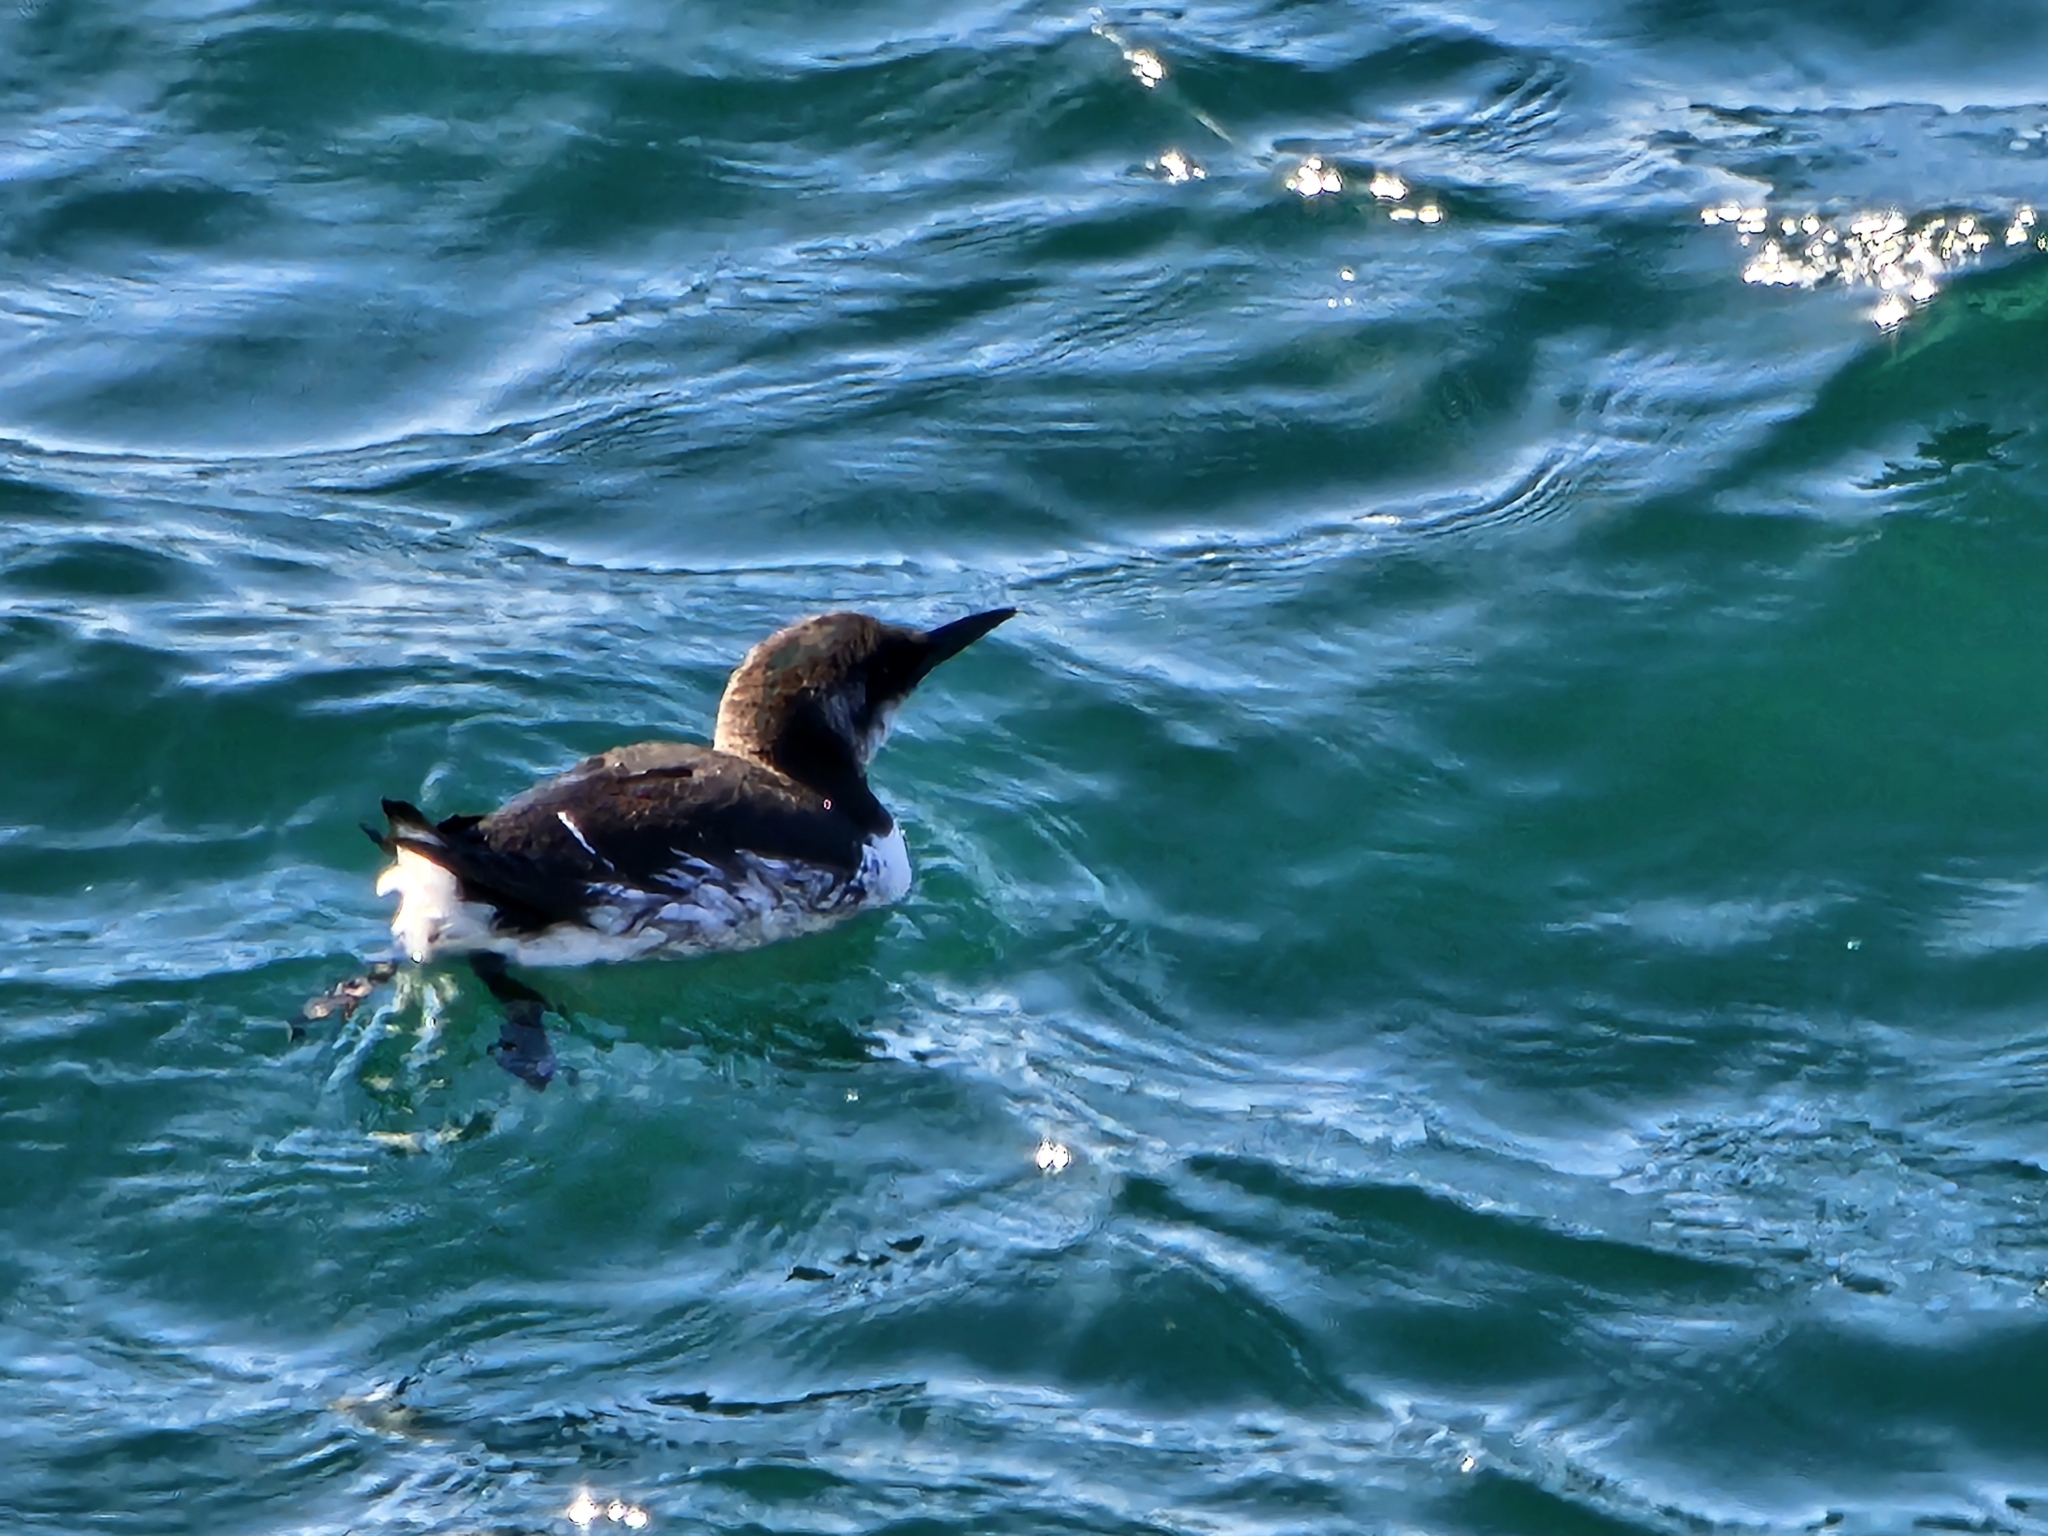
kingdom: Animalia
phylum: Chordata
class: Aves
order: Charadriiformes
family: Alcidae
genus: Uria
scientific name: Uria aalge
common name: Common murre
